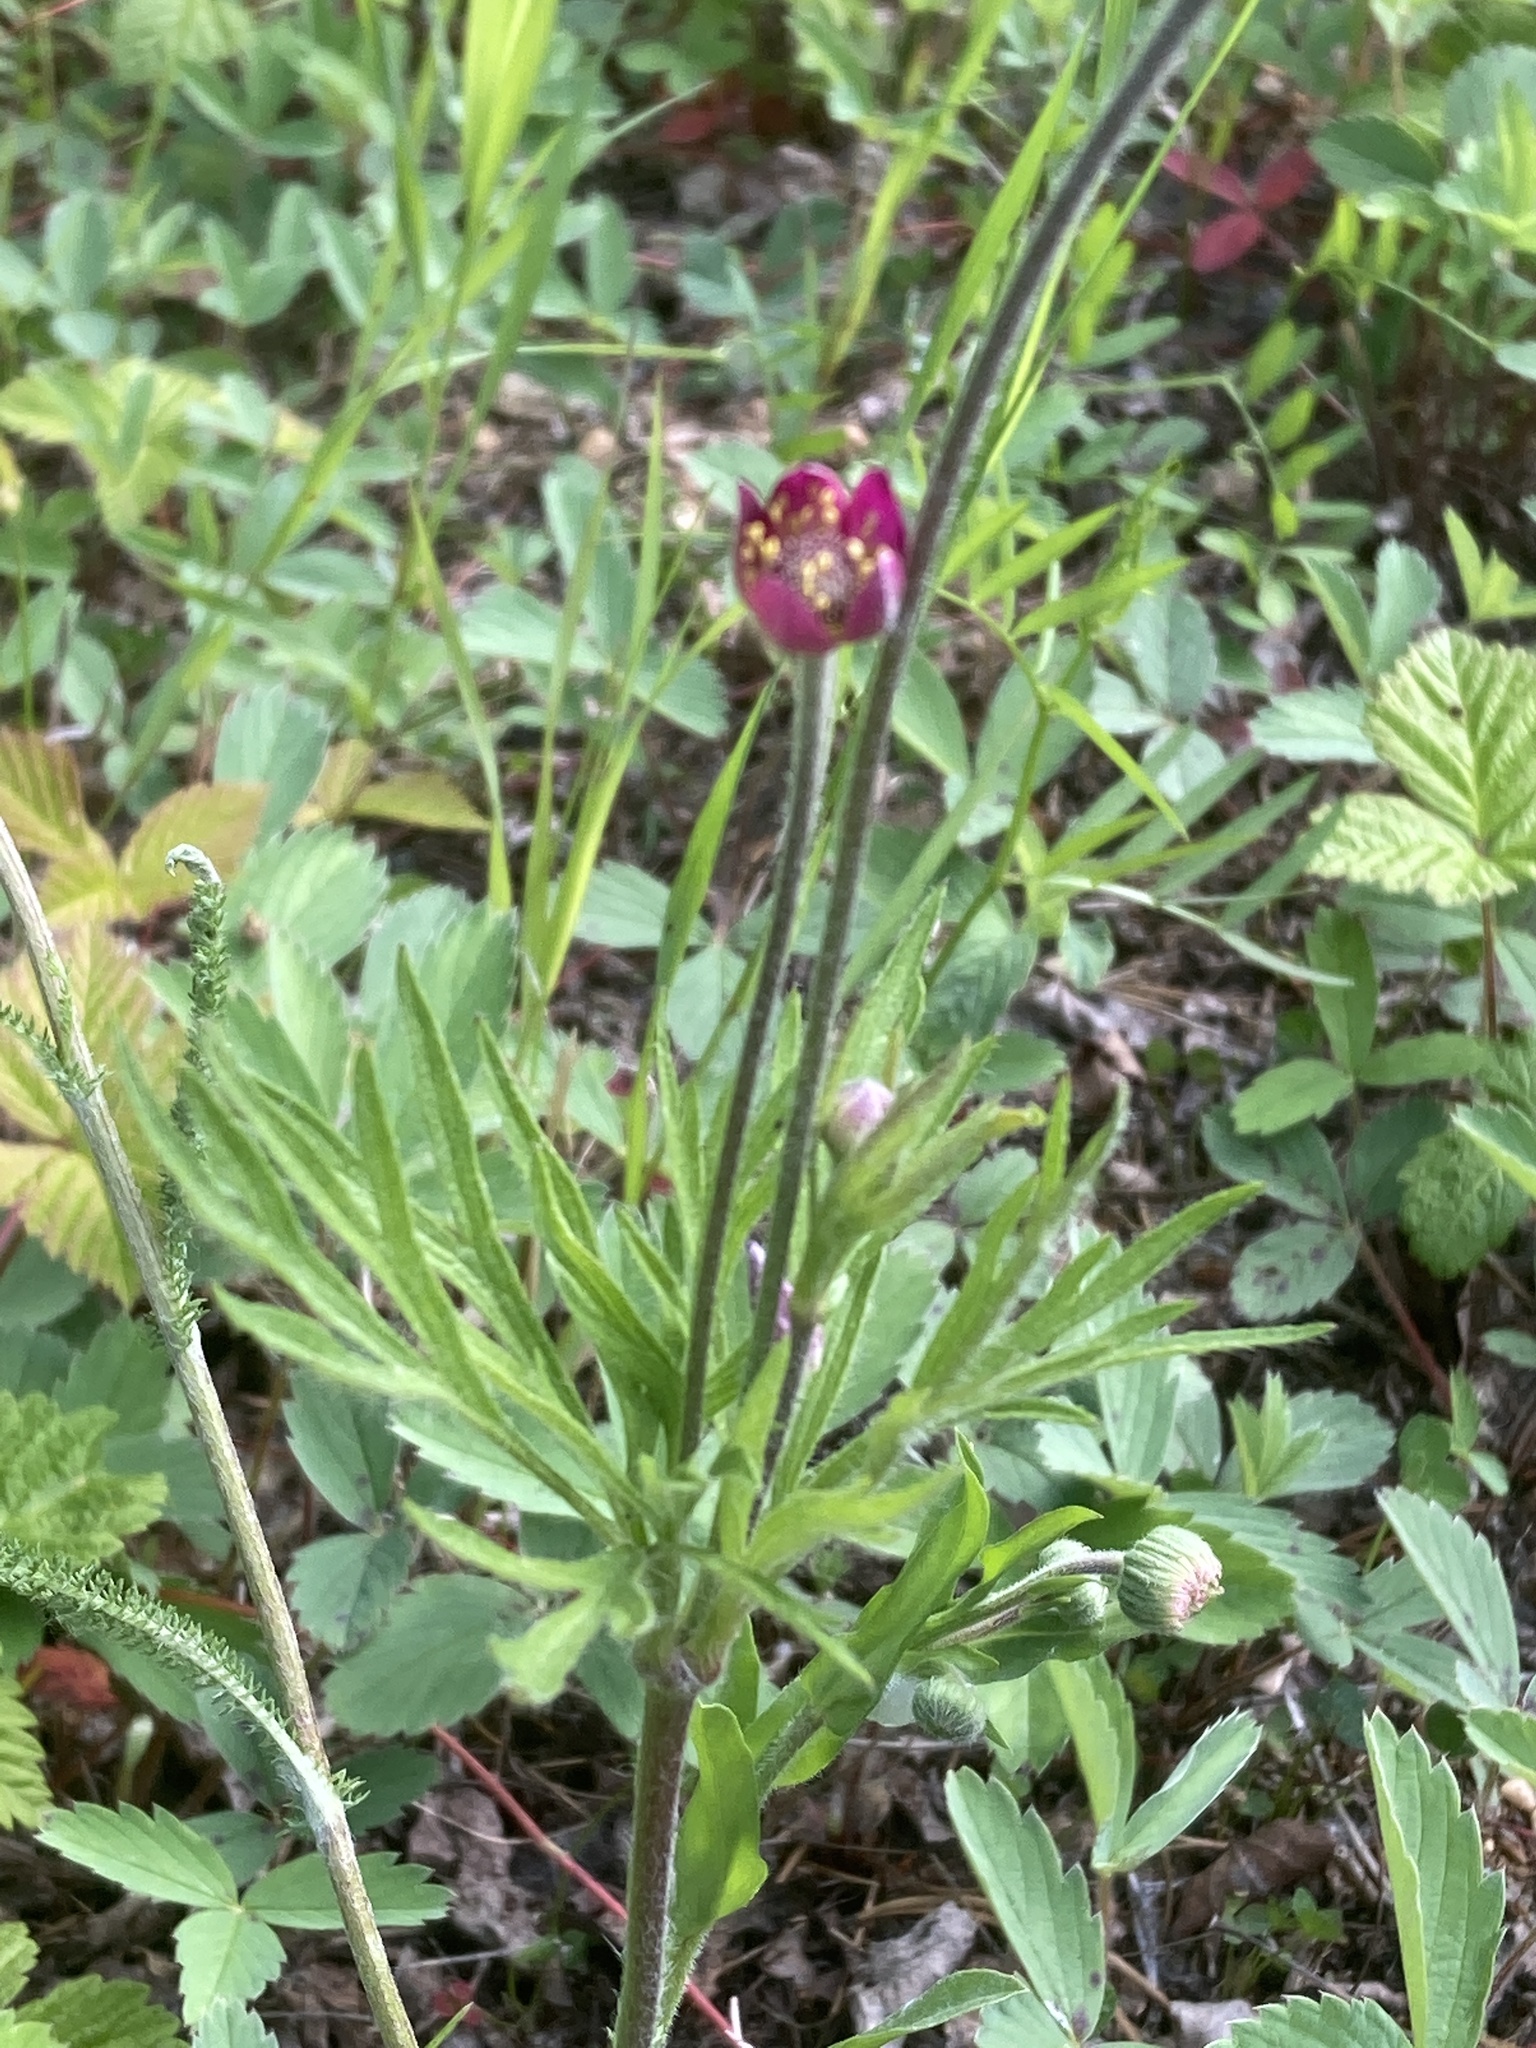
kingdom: Plantae
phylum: Tracheophyta
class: Magnoliopsida
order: Ranunculales
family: Ranunculaceae
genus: Anemone
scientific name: Anemone multifida
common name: Bird's-foot anemone
